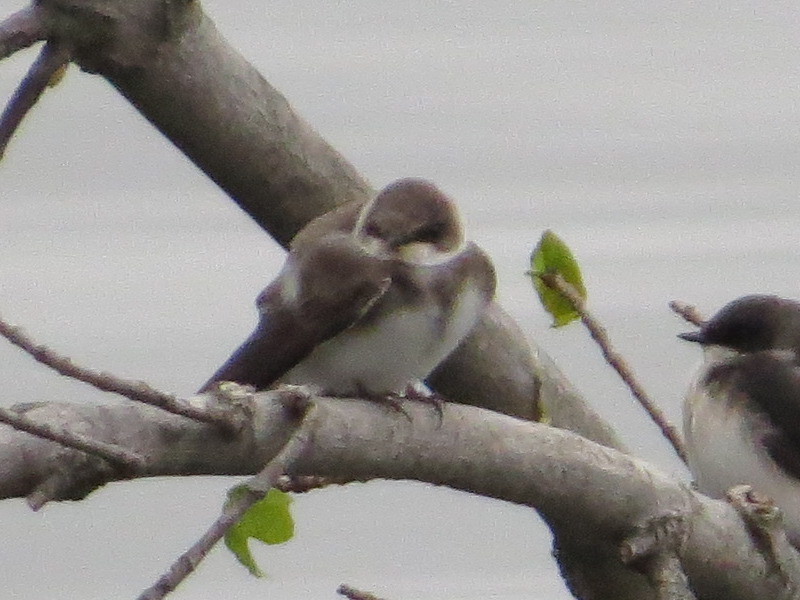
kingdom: Animalia
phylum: Chordata
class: Aves
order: Passeriformes
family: Hirundinidae
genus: Riparia
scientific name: Riparia riparia
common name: Sand martin
